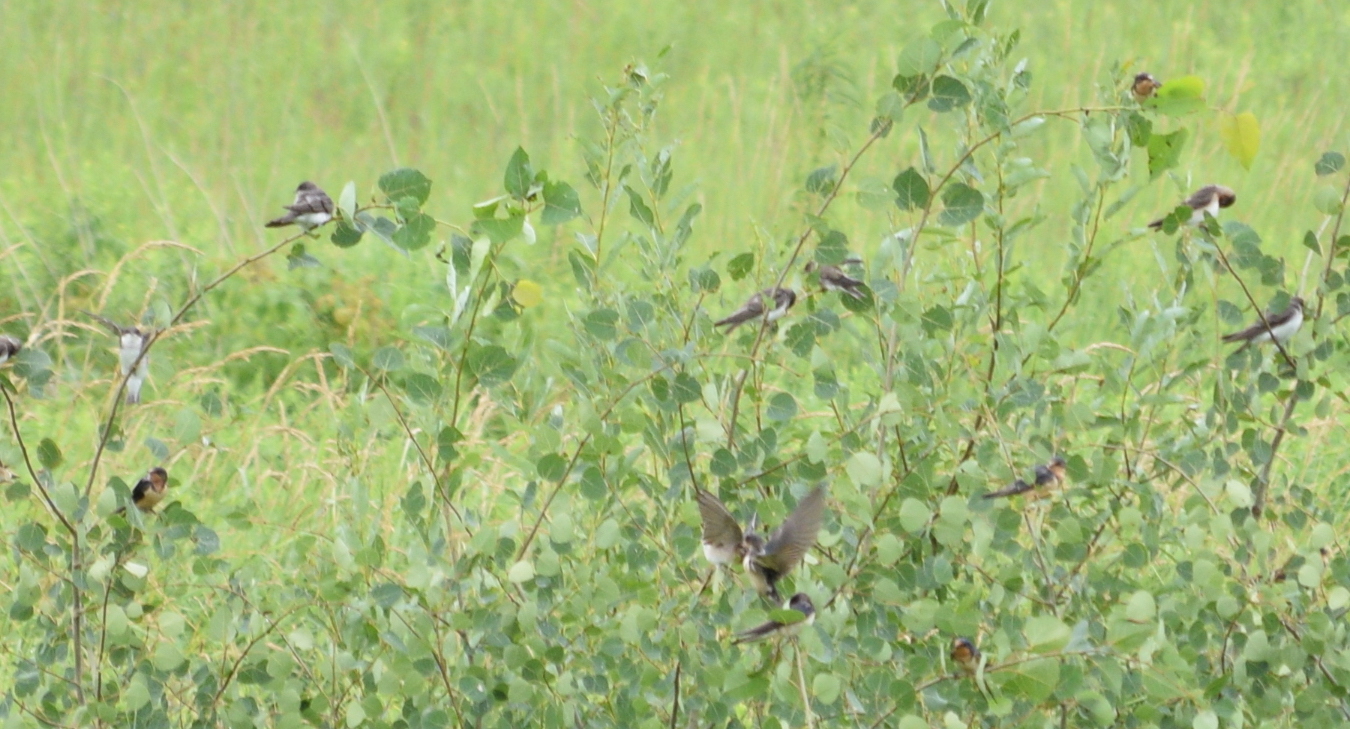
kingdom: Animalia
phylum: Chordata
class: Aves
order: Passeriformes
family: Hirundinidae
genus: Hirundo
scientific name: Hirundo rustica
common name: Barn swallow
